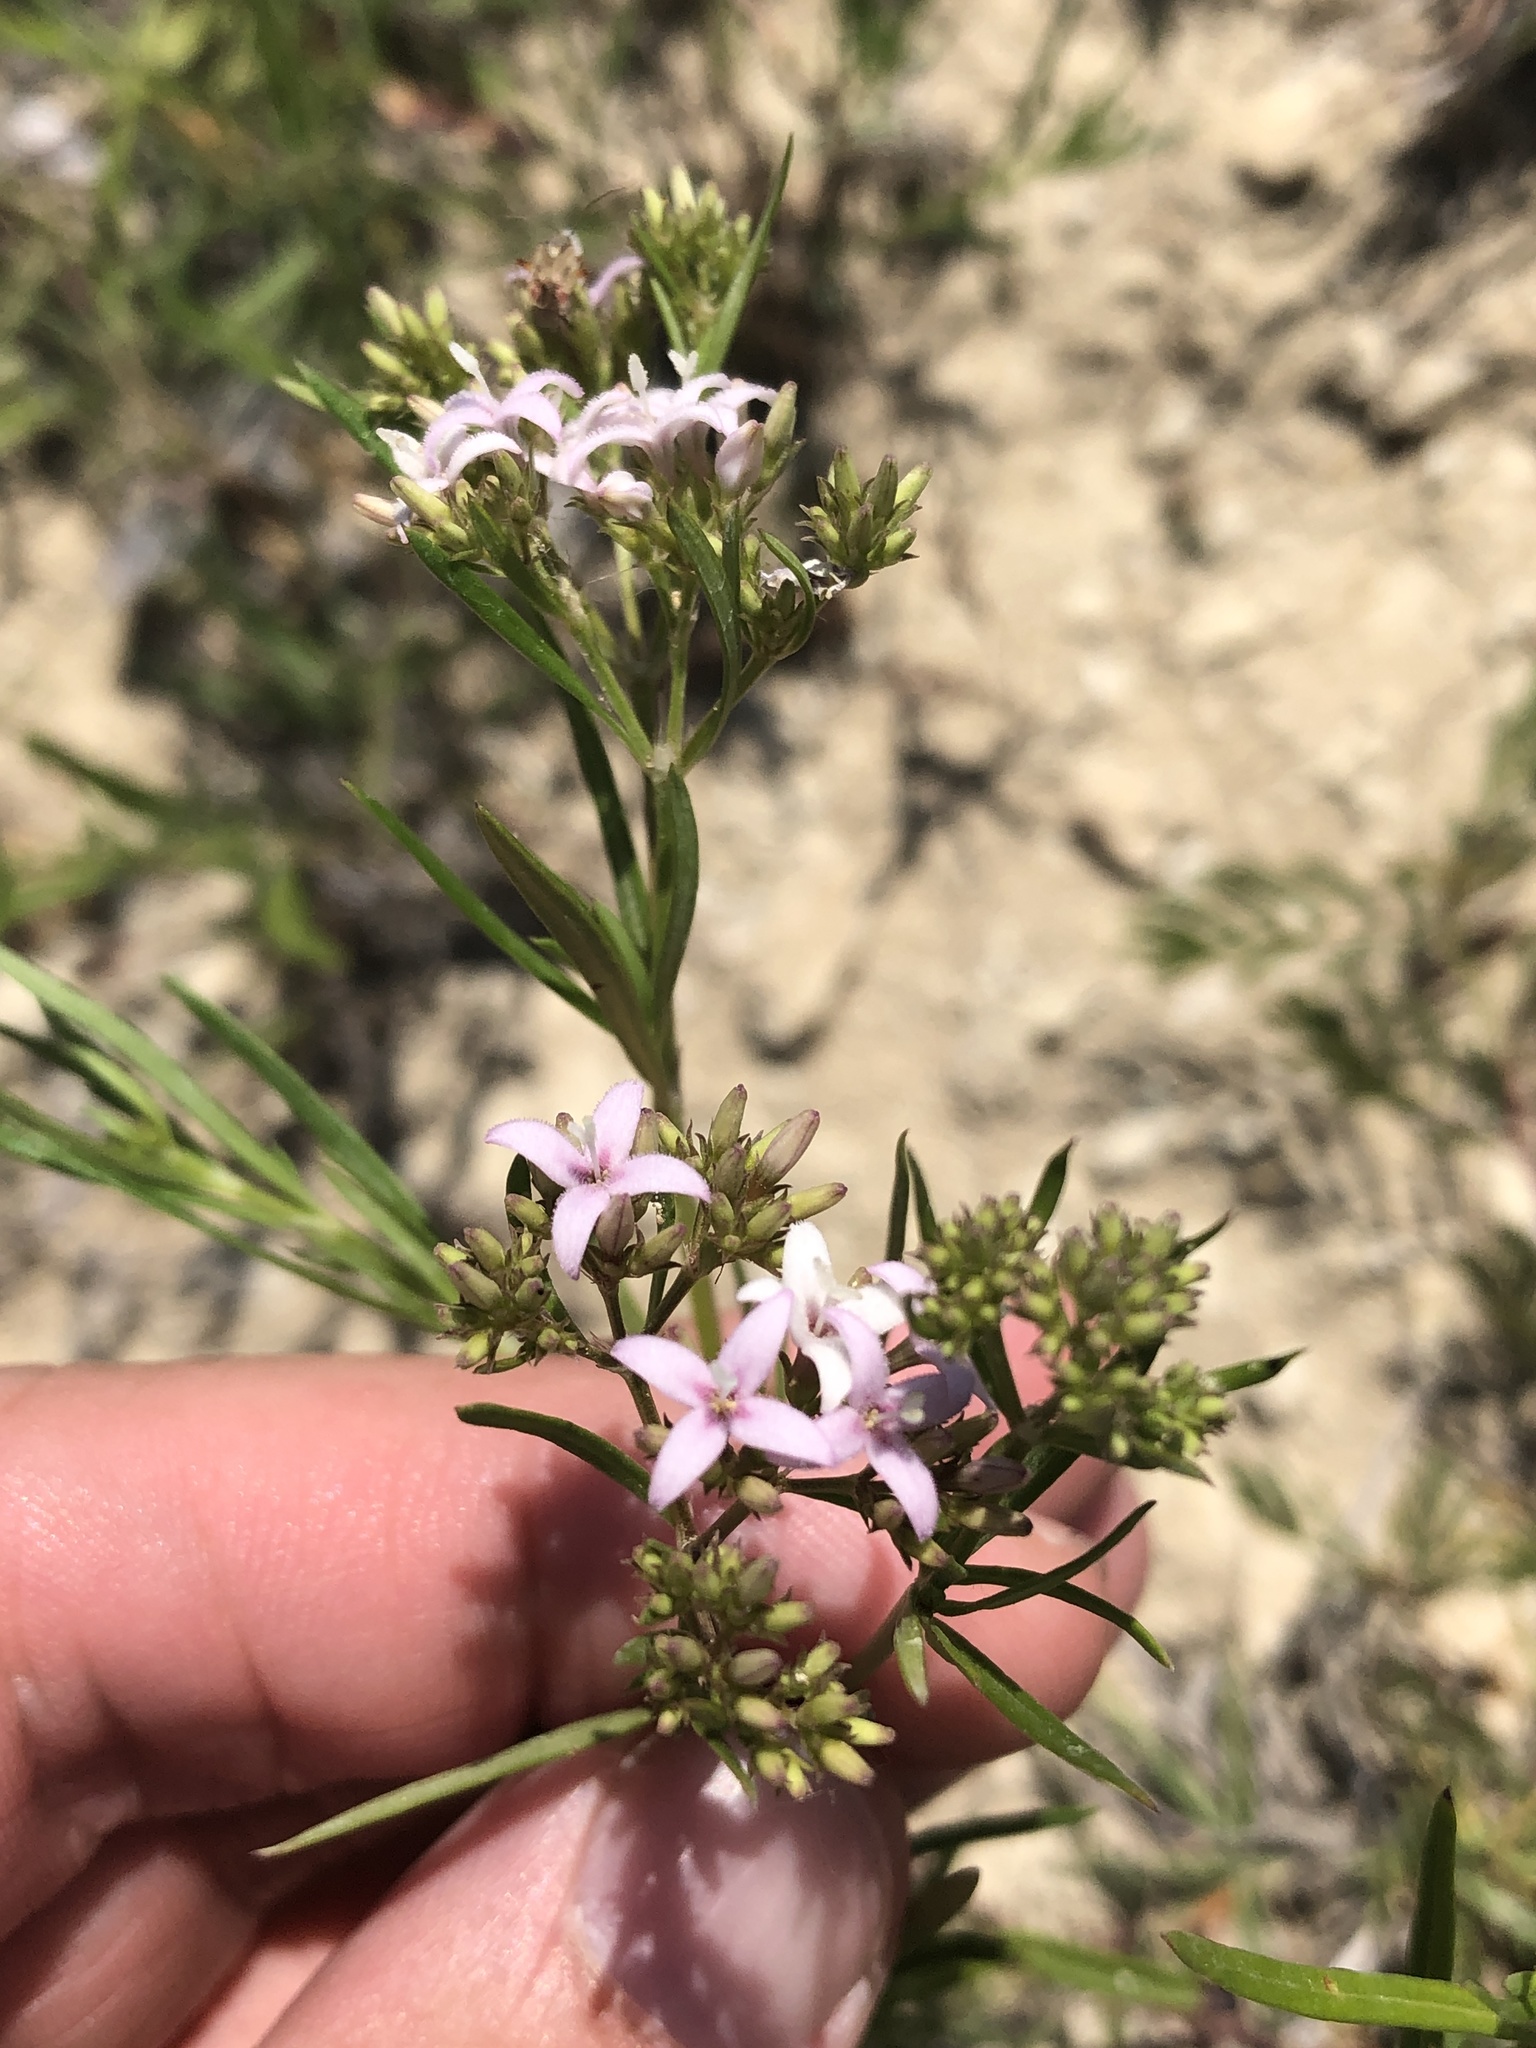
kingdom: Plantae
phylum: Tracheophyta
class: Magnoliopsida
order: Gentianales
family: Rubiaceae
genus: Stenaria
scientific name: Stenaria nigricans
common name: Diamondflowers
